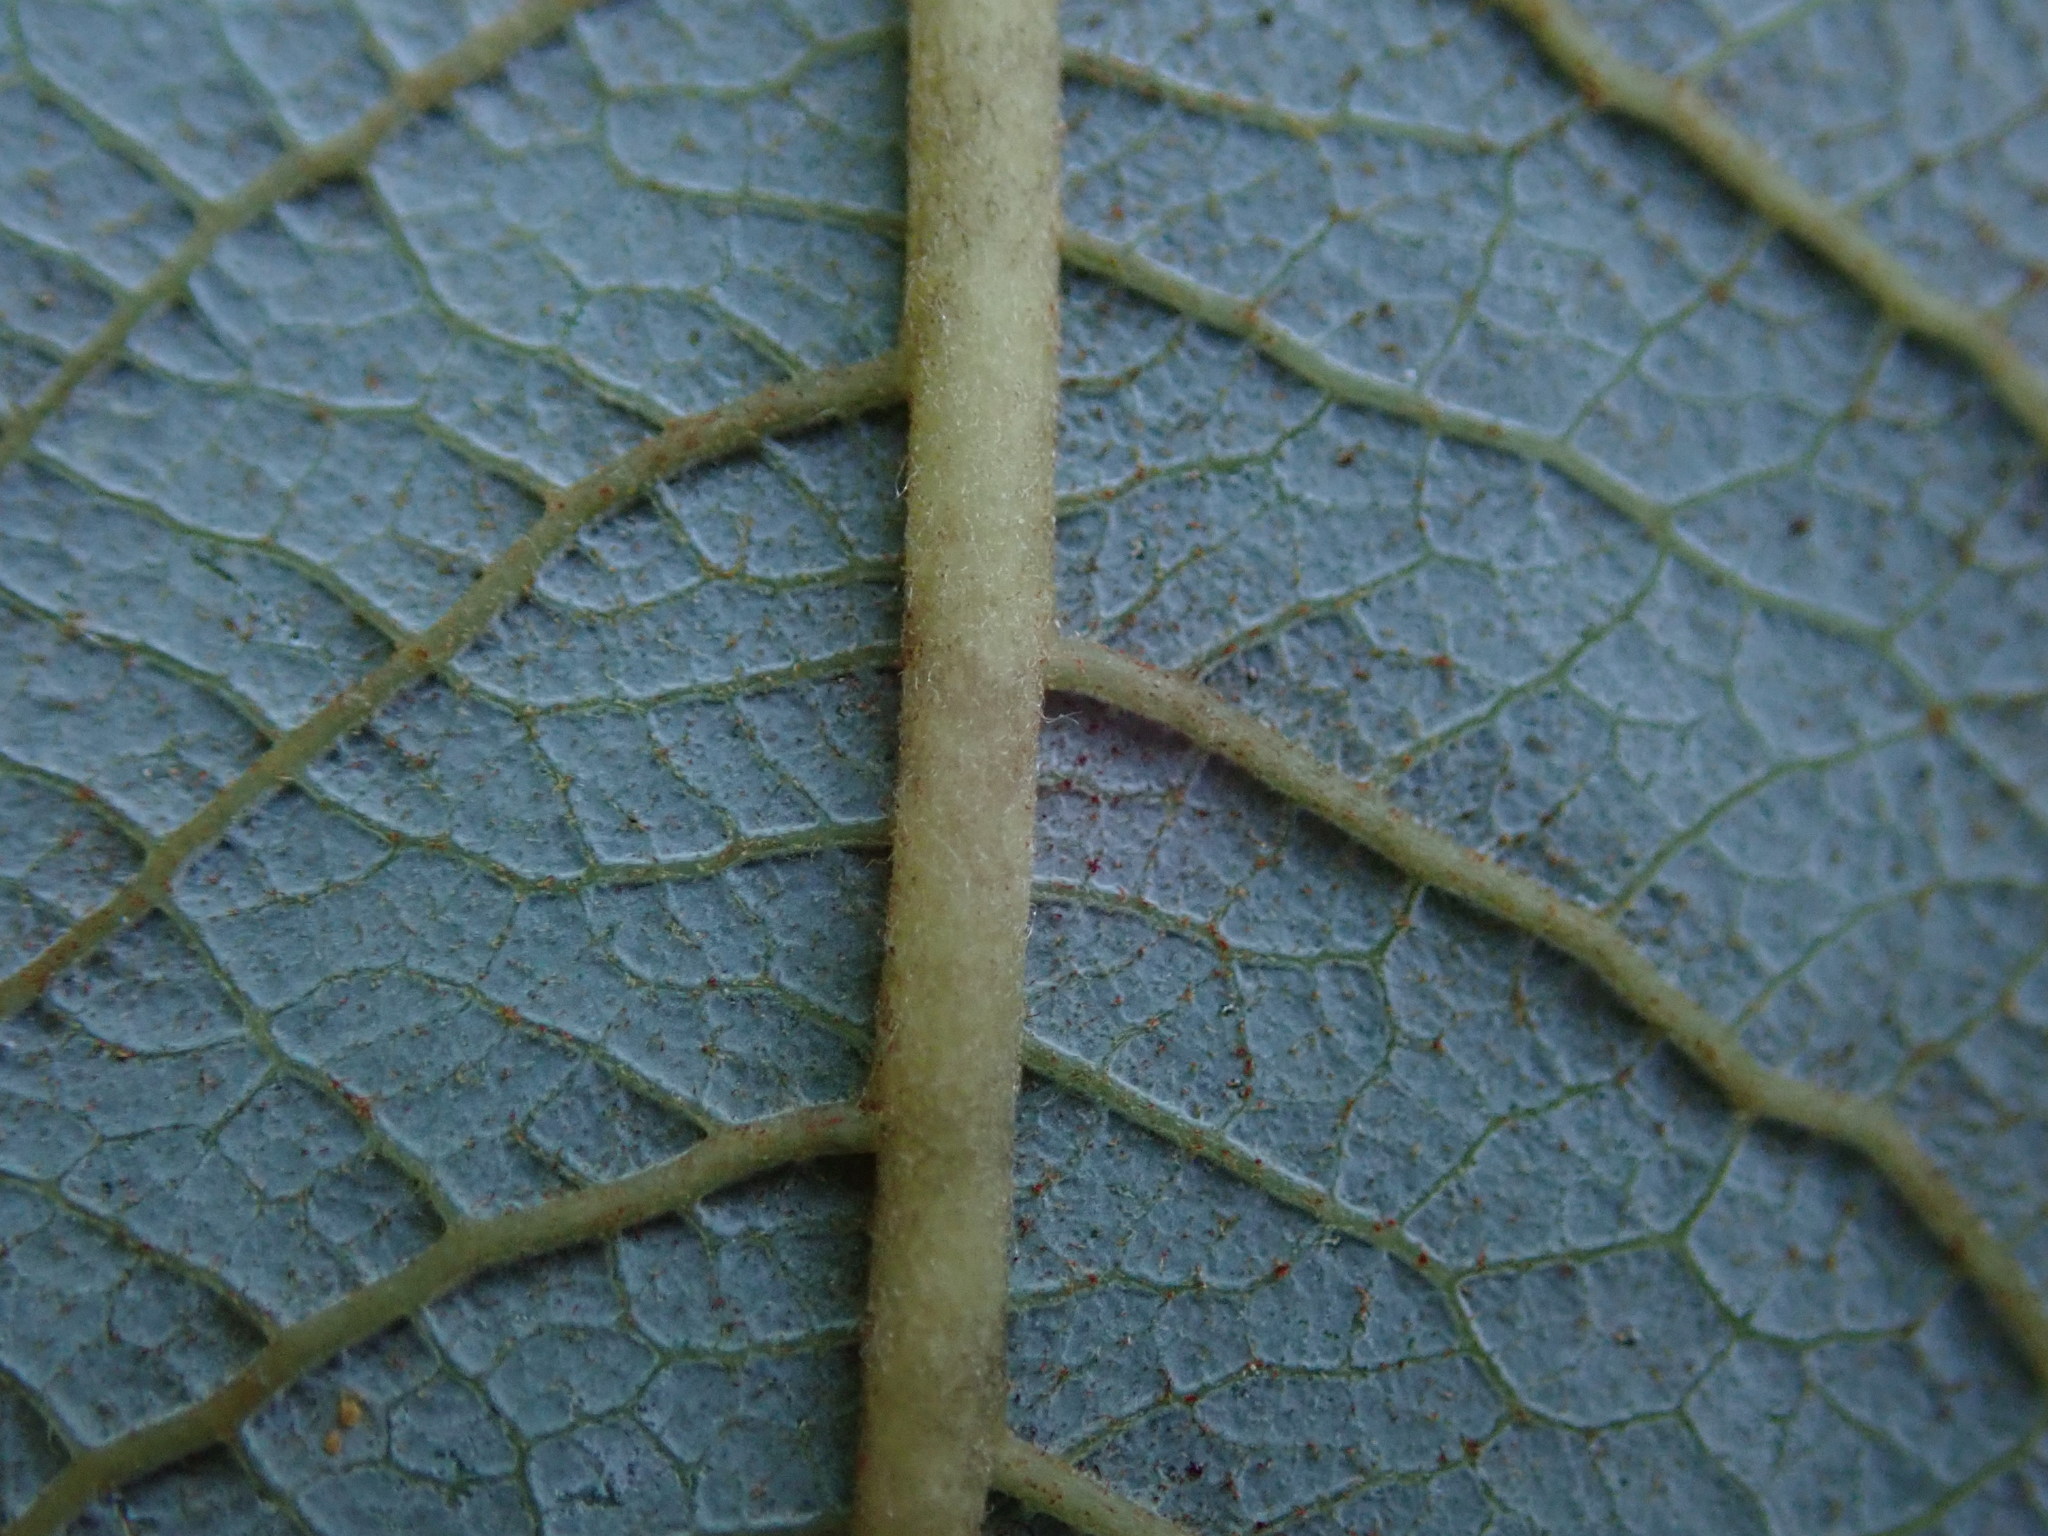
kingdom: Plantae
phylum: Tracheophyta
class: Magnoliopsida
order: Malpighiales
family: Salicaceae
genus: Salix
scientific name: Salix cinerea
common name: Common sallow
